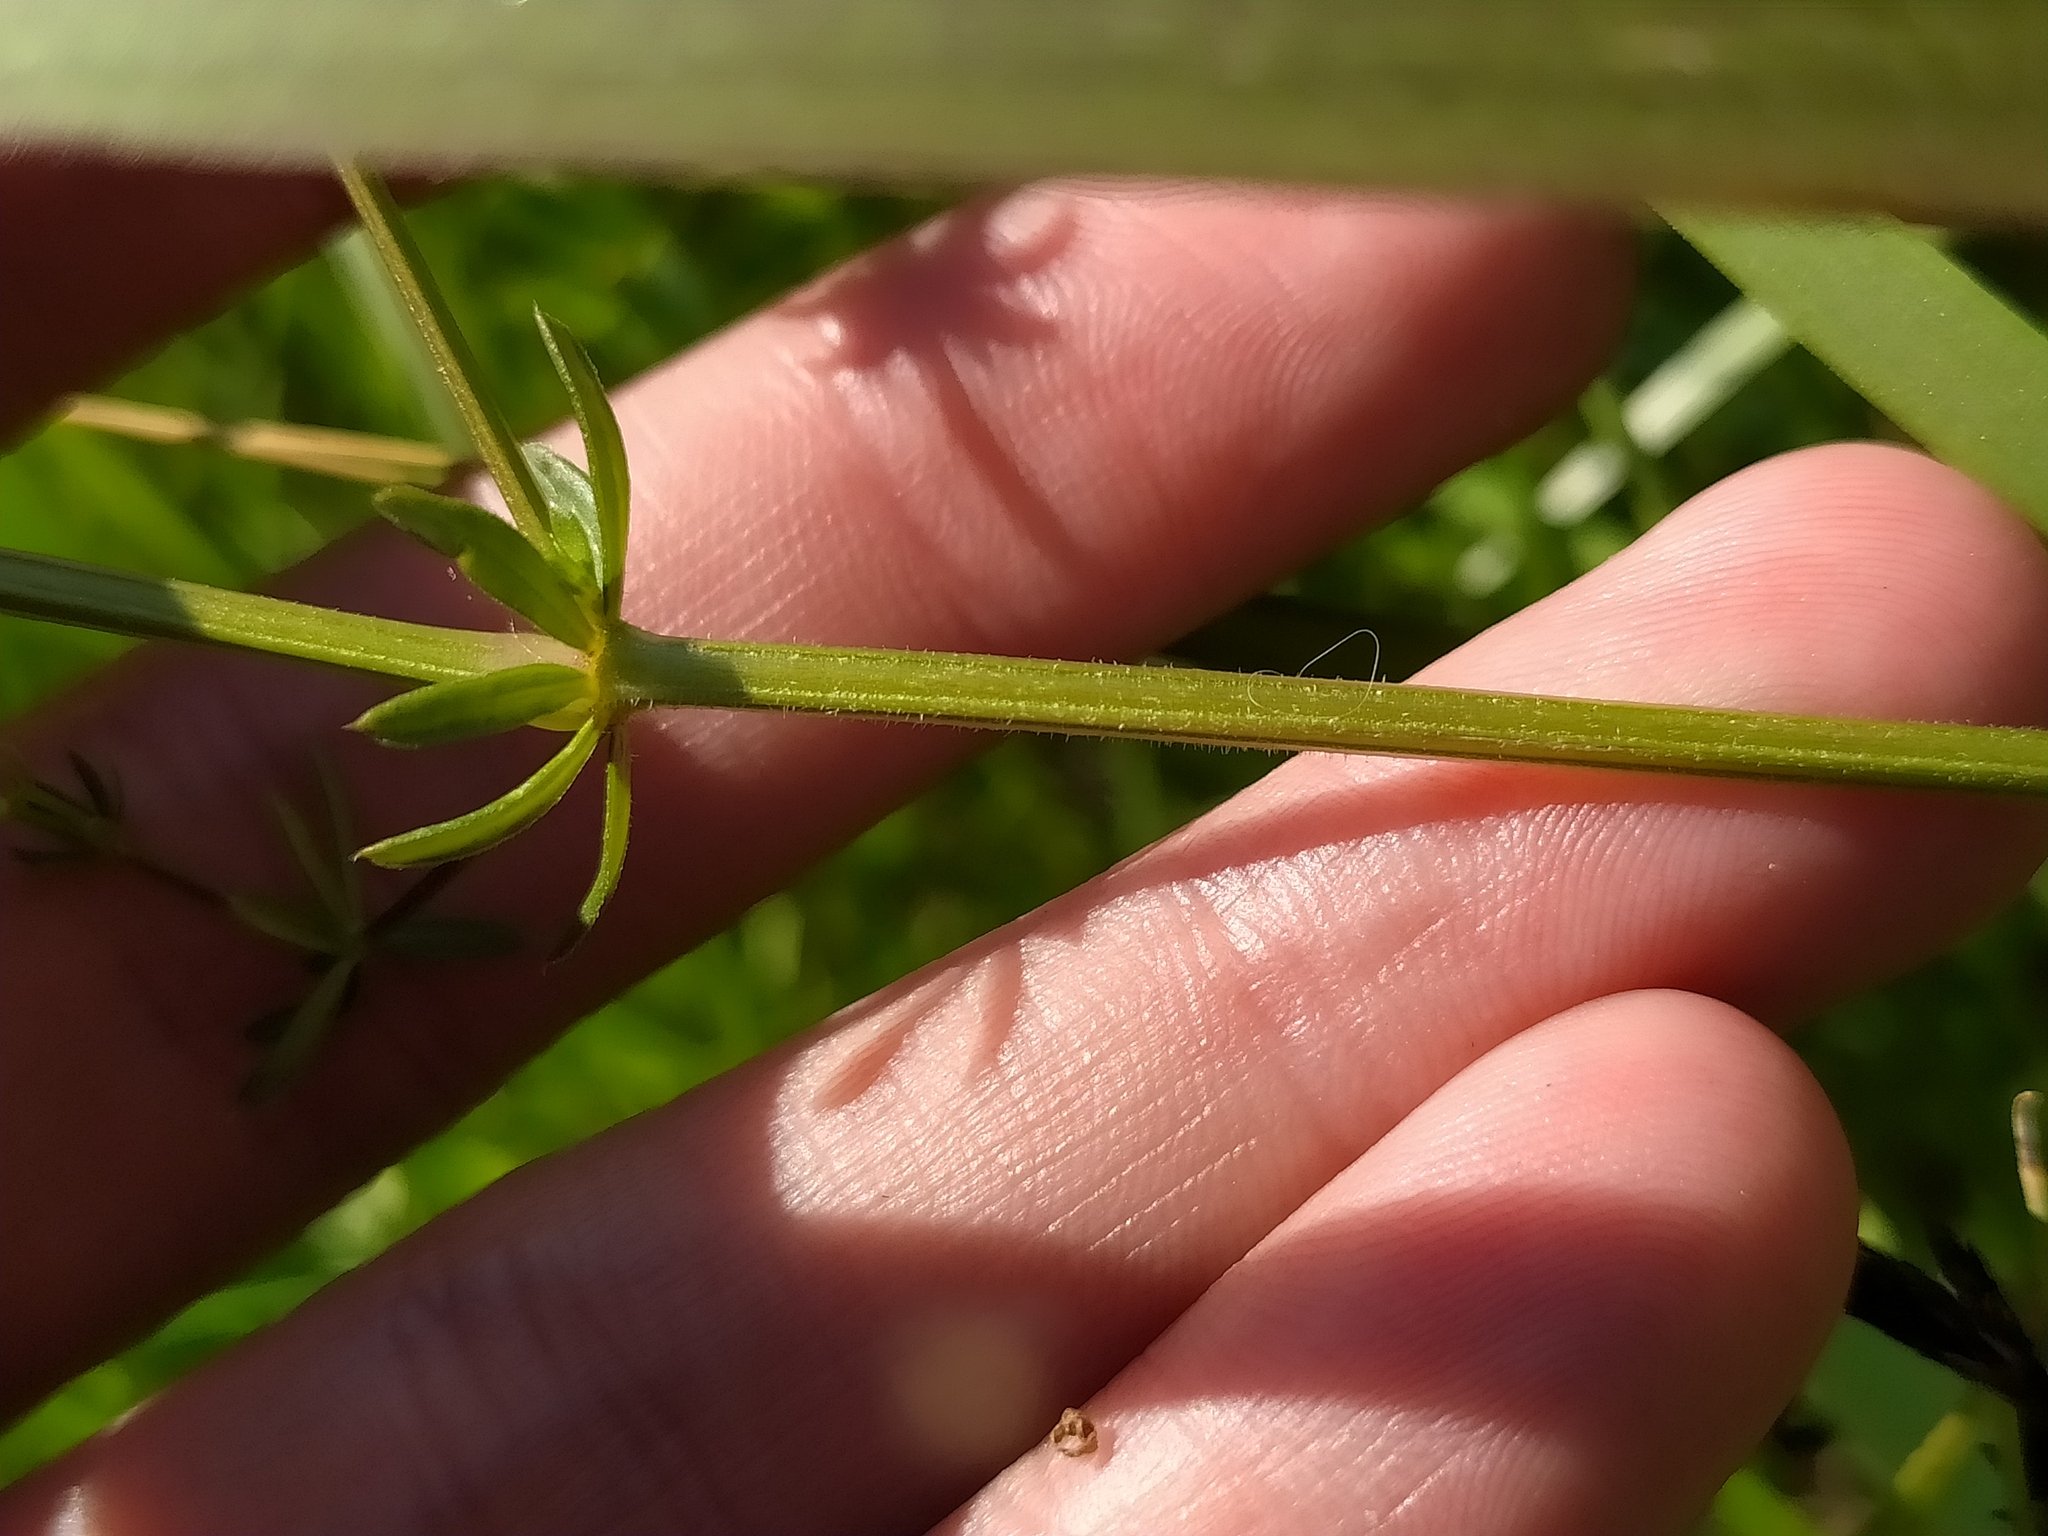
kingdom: Plantae
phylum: Tracheophyta
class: Magnoliopsida
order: Gentianales
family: Rubiaceae
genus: Galium
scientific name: Galium elongatum
